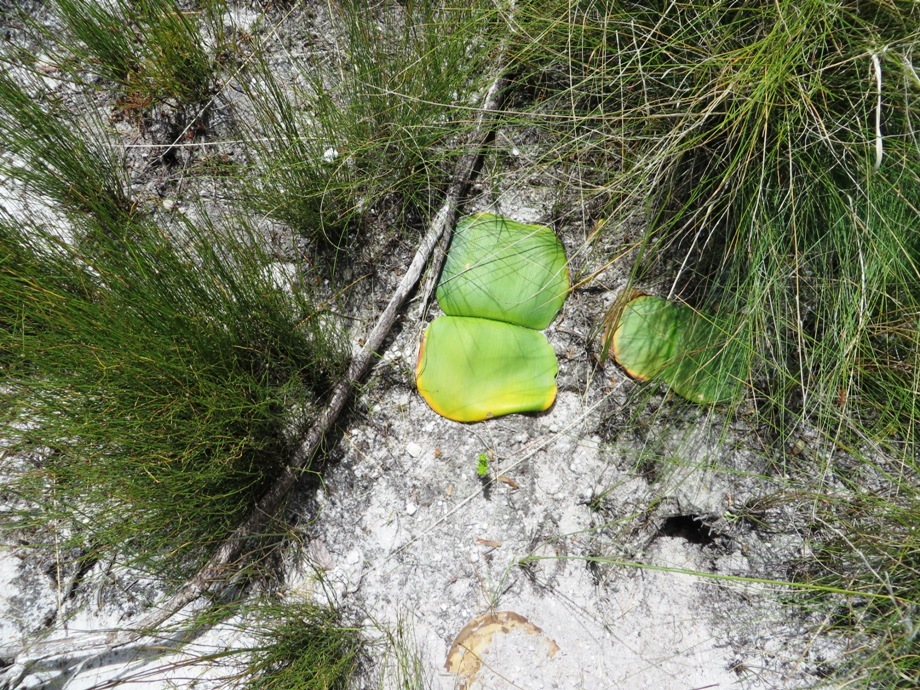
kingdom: Plantae
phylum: Tracheophyta
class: Liliopsida
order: Asparagales
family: Amaryllidaceae
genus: Haemanthus
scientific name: Haemanthus sanguineus
